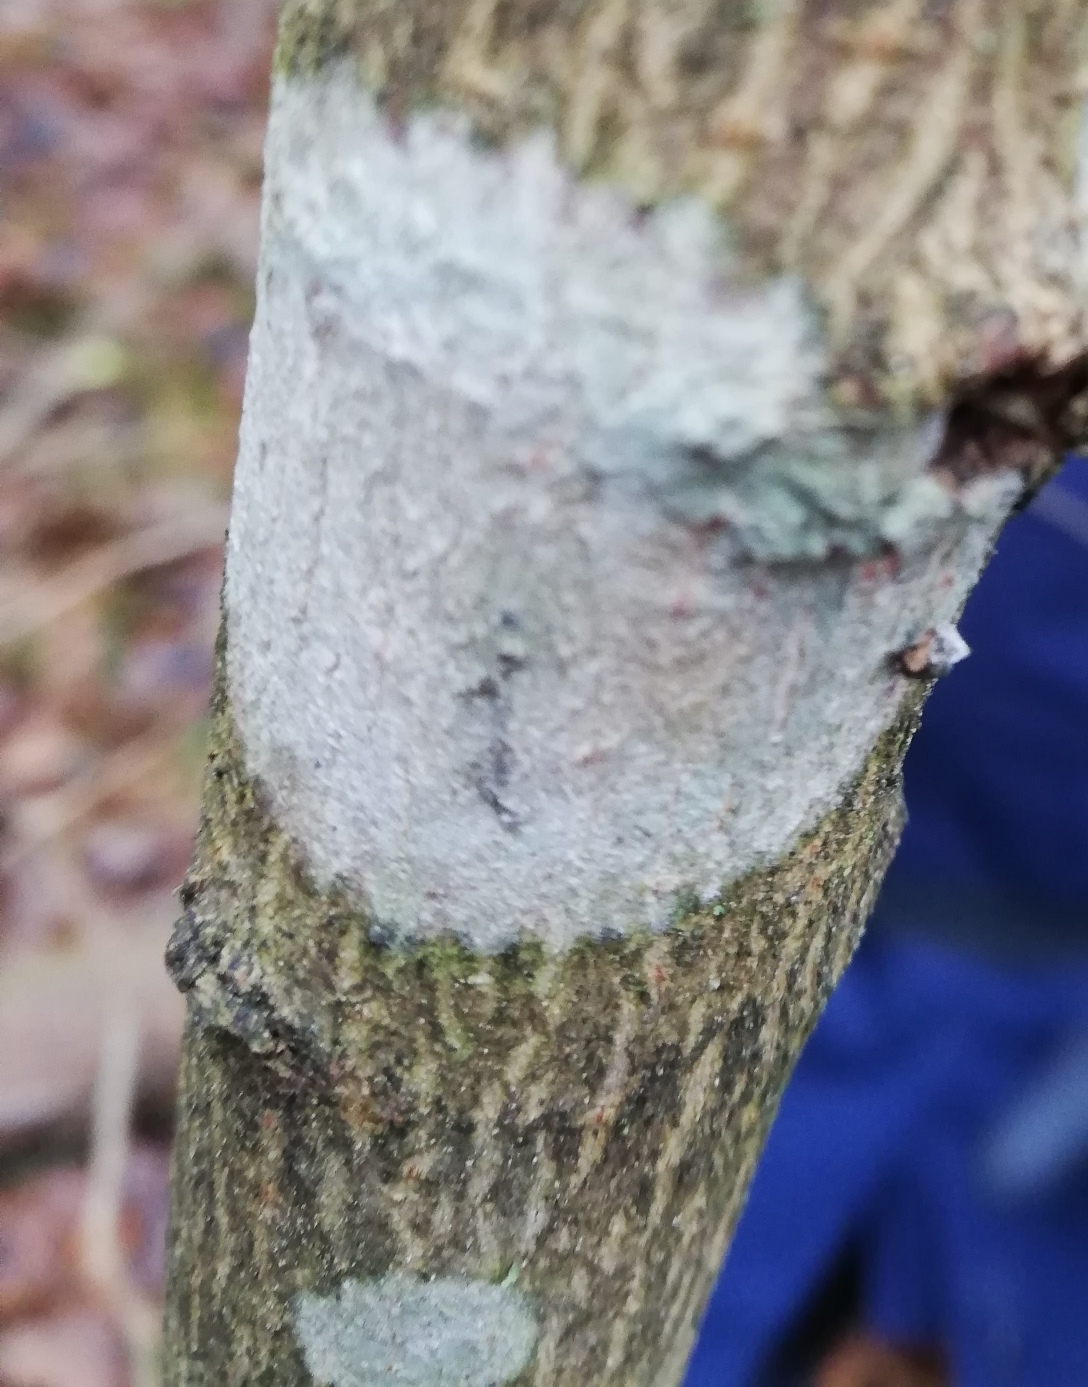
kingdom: Fungi
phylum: Ascomycota
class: Lecanoromycetes
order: Ostropales
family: Phlyctidaceae
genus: Phlyctis
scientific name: Phlyctis argena
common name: Whitewash lichen
